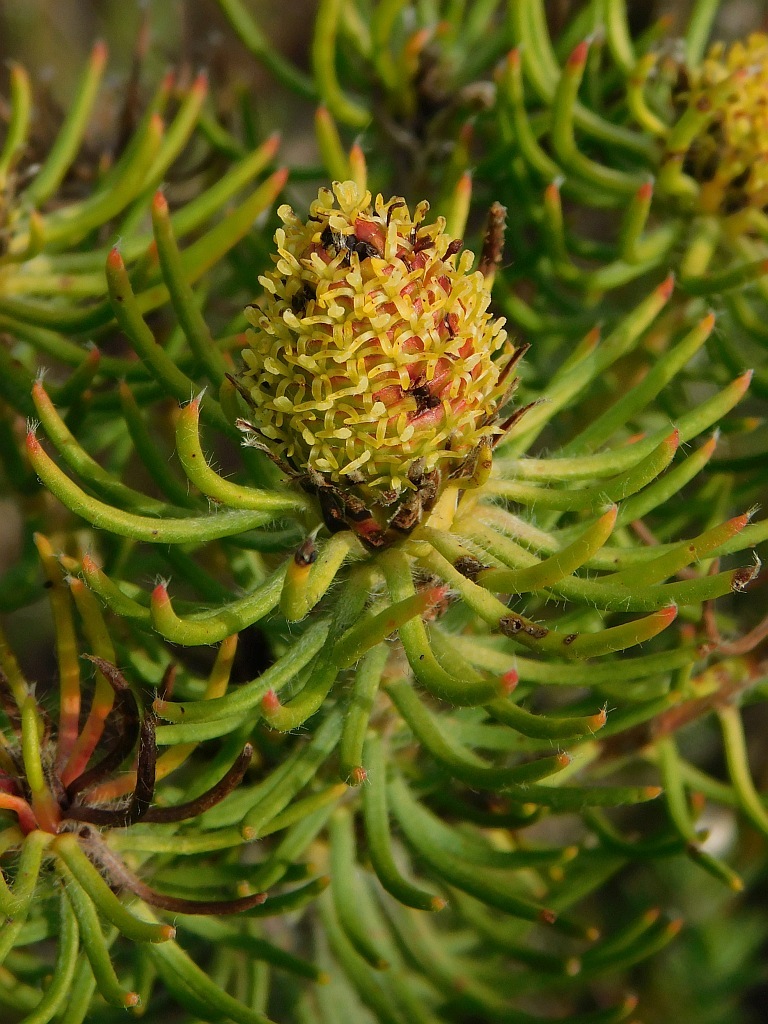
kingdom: Plantae
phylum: Tracheophyta
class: Magnoliopsida
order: Proteales
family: Proteaceae
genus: Leucadendron
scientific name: Leucadendron teretifolium
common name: Needle-leaf conebush
